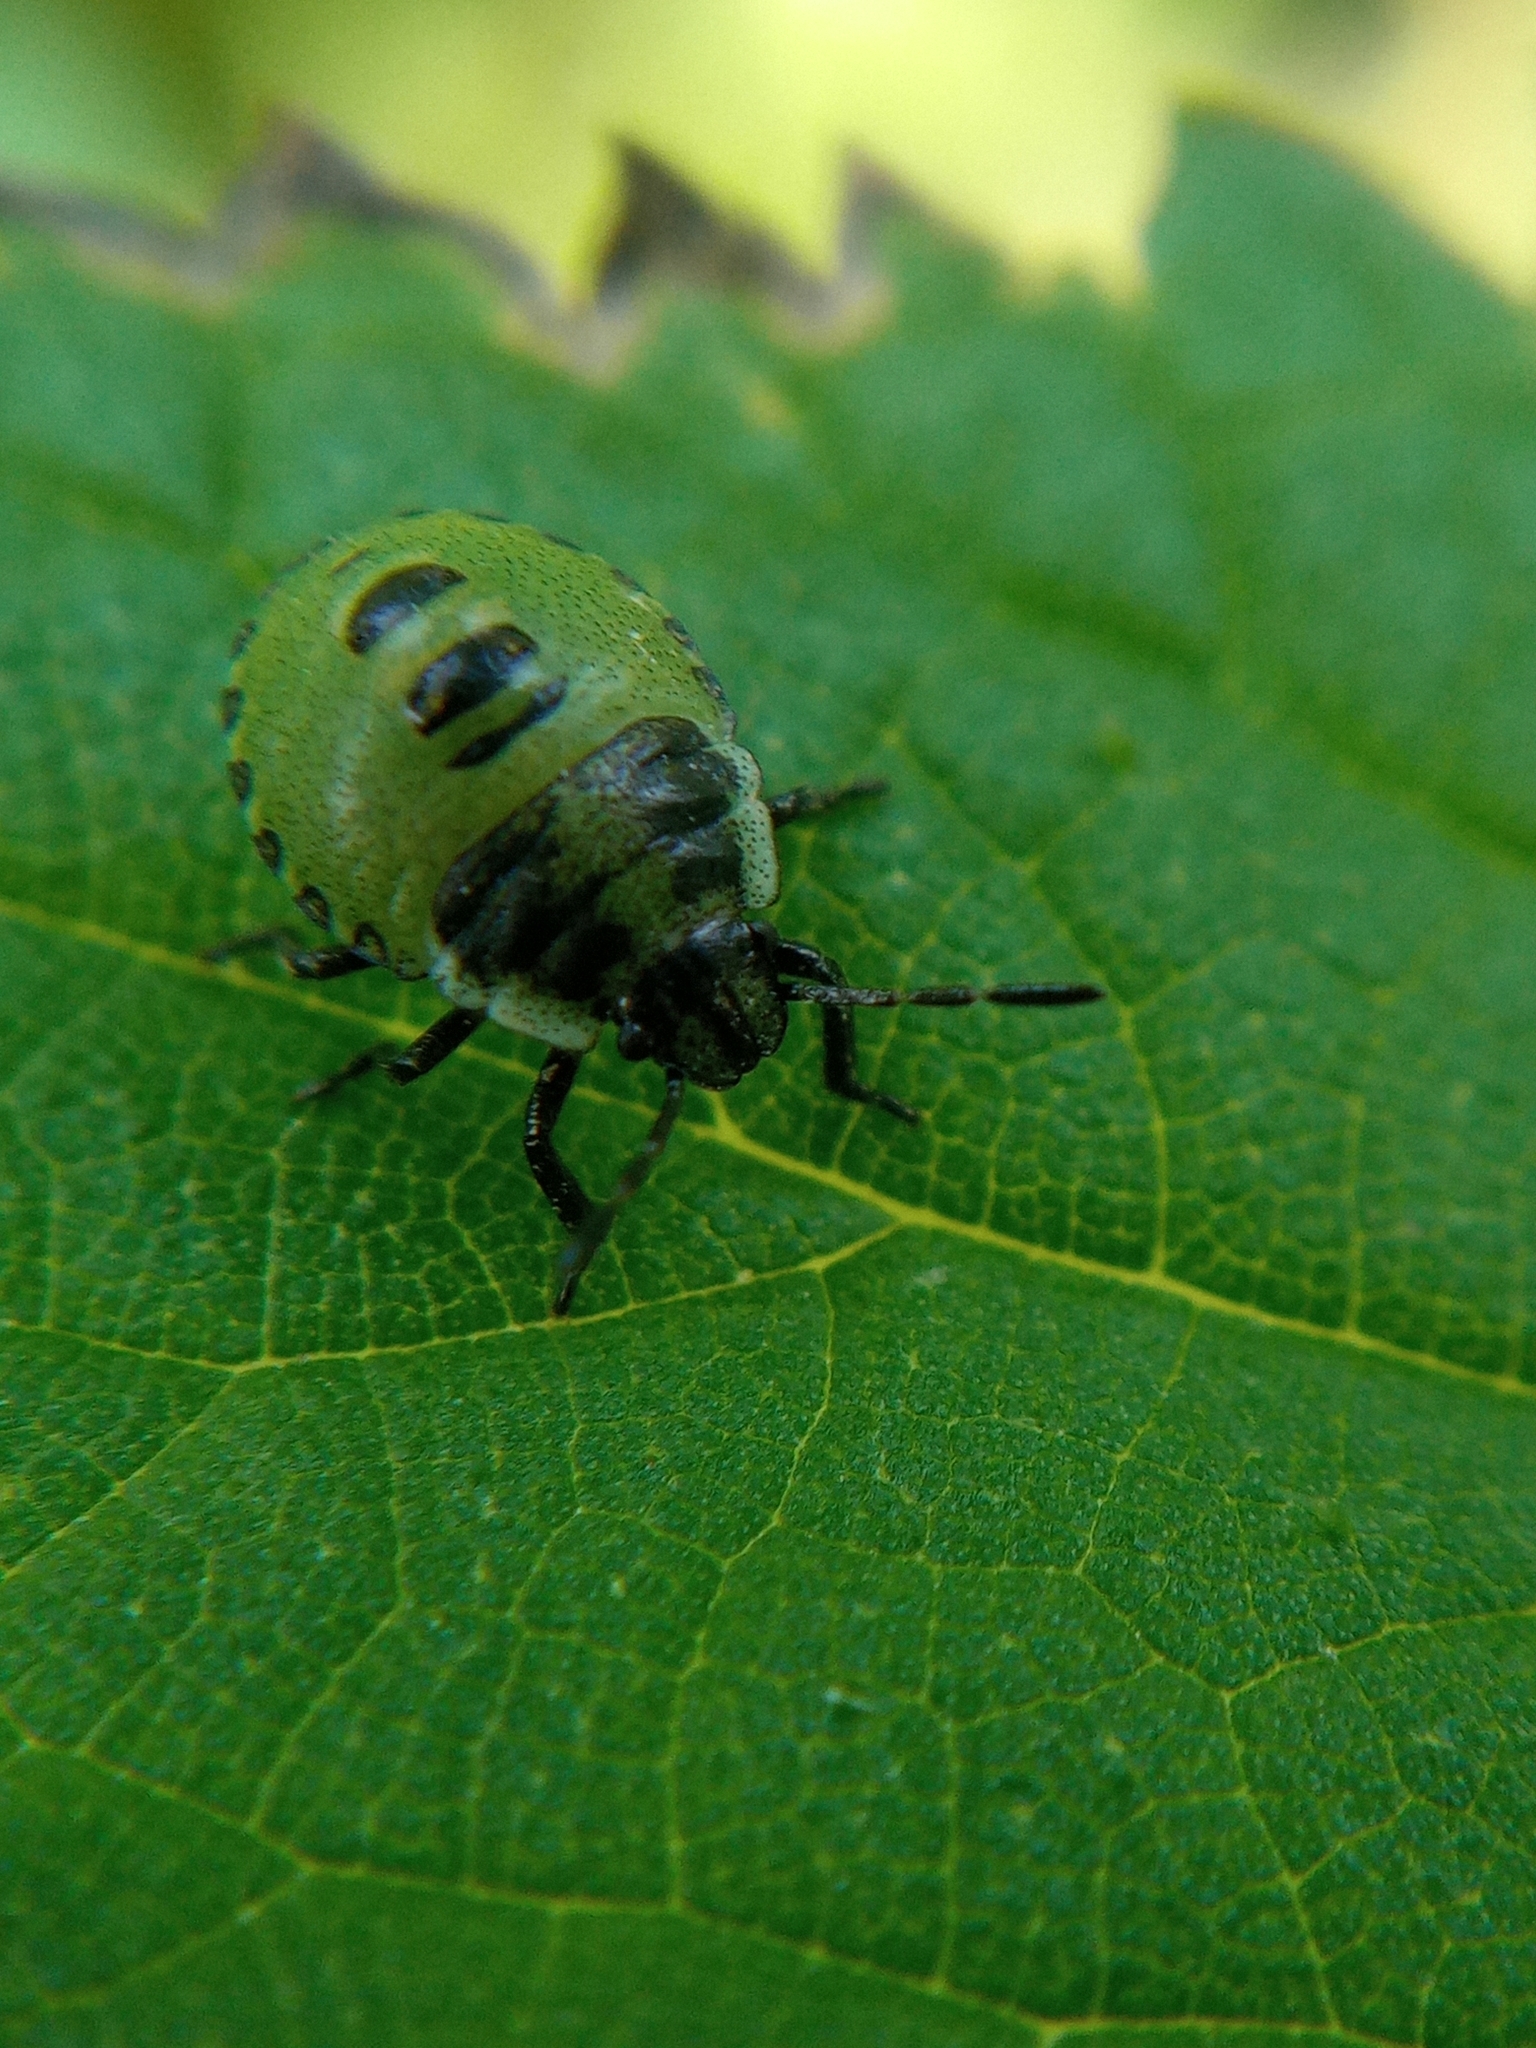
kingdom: Animalia
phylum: Arthropoda
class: Insecta
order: Hemiptera
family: Pentatomidae
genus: Palomena
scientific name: Palomena prasina
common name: Green shieldbug
